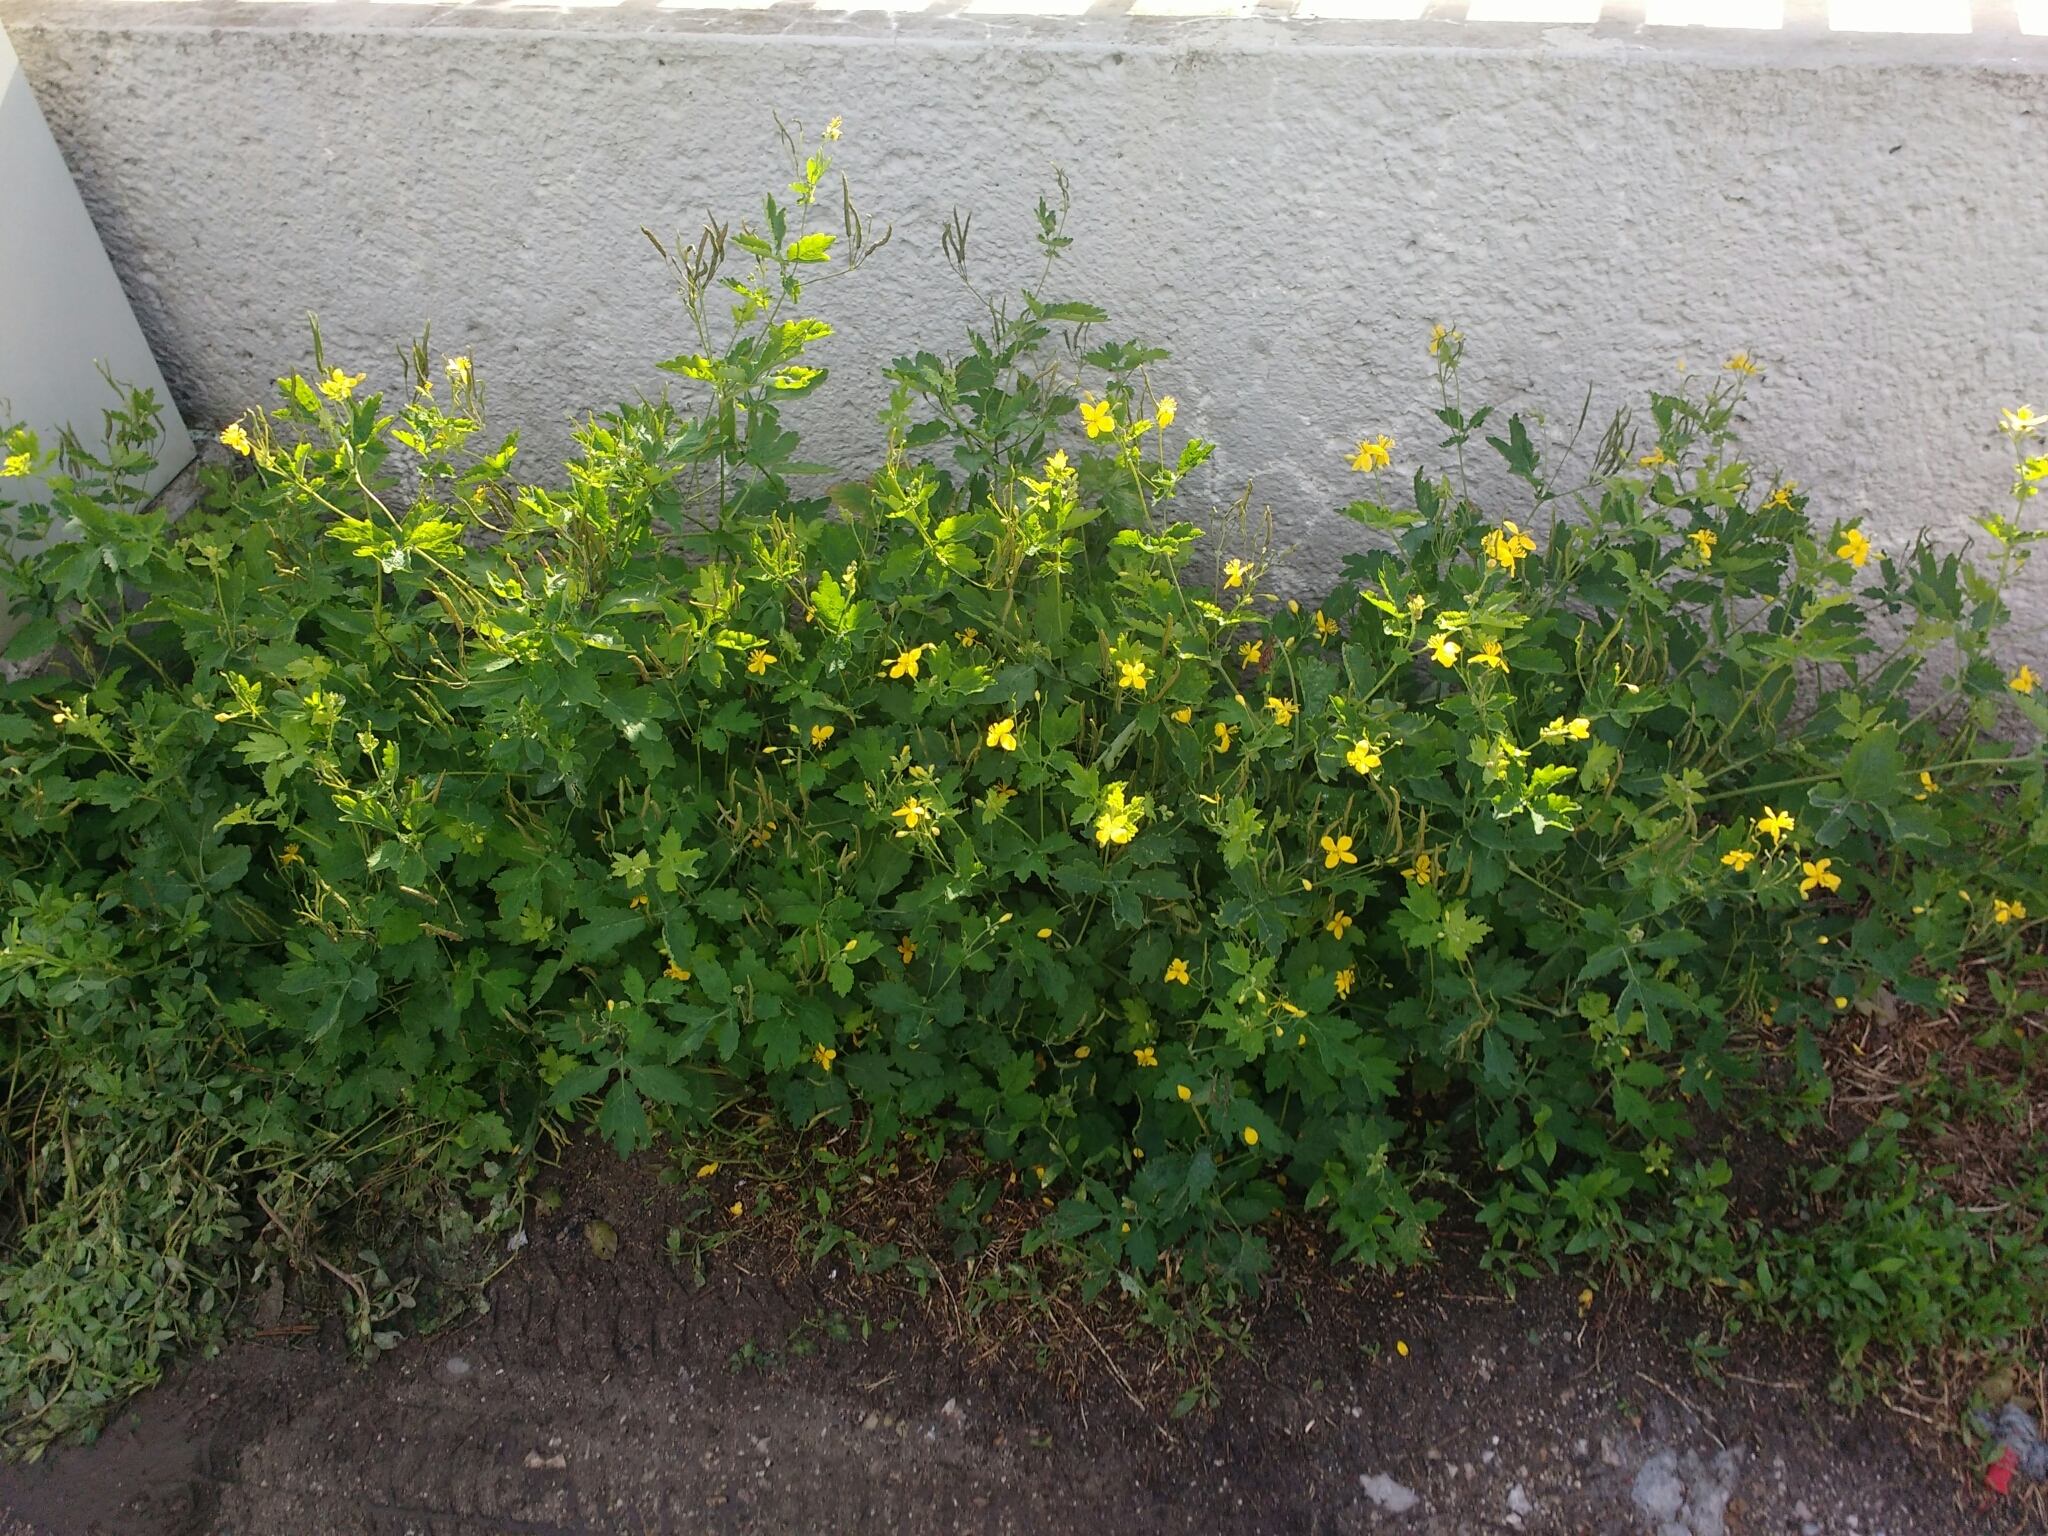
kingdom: Plantae
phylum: Tracheophyta
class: Magnoliopsida
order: Ranunculales
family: Papaveraceae
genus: Chelidonium
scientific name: Chelidonium majus
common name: Greater celandine
